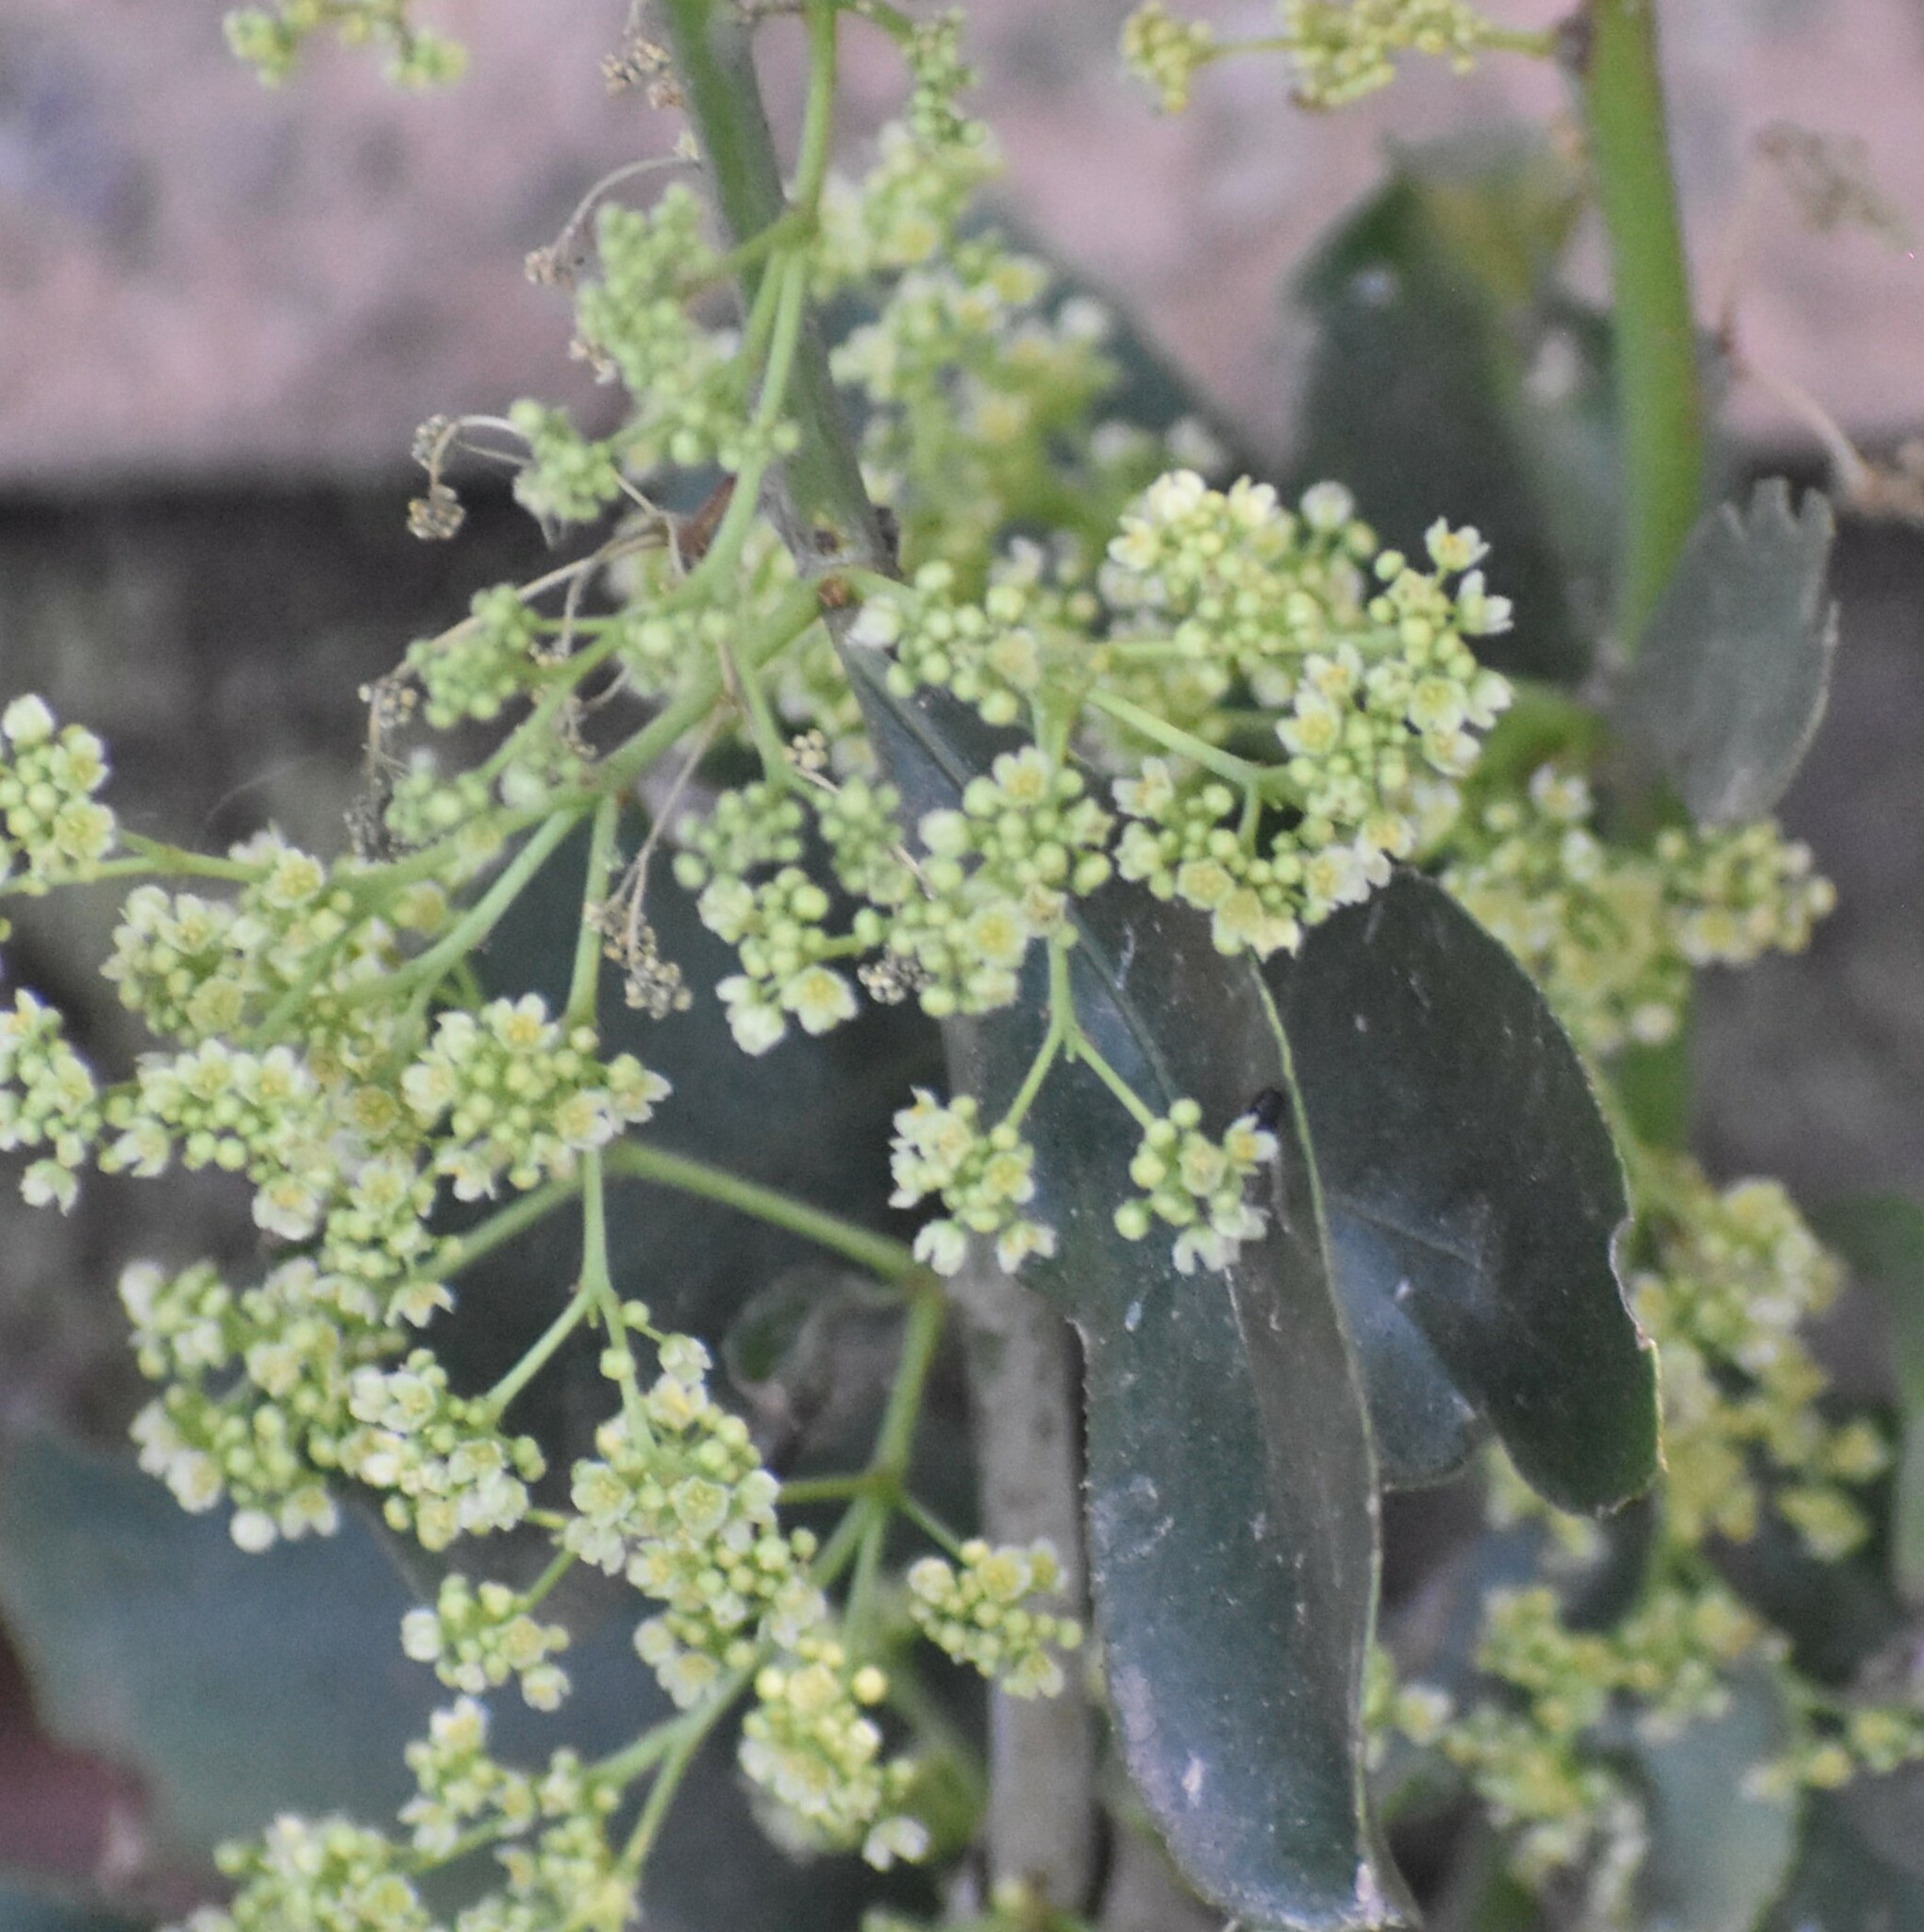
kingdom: Plantae
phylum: Tracheophyta
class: Magnoliopsida
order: Celastrales
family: Celastraceae
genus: Gymnosporia
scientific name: Gymnosporia senegalensis
